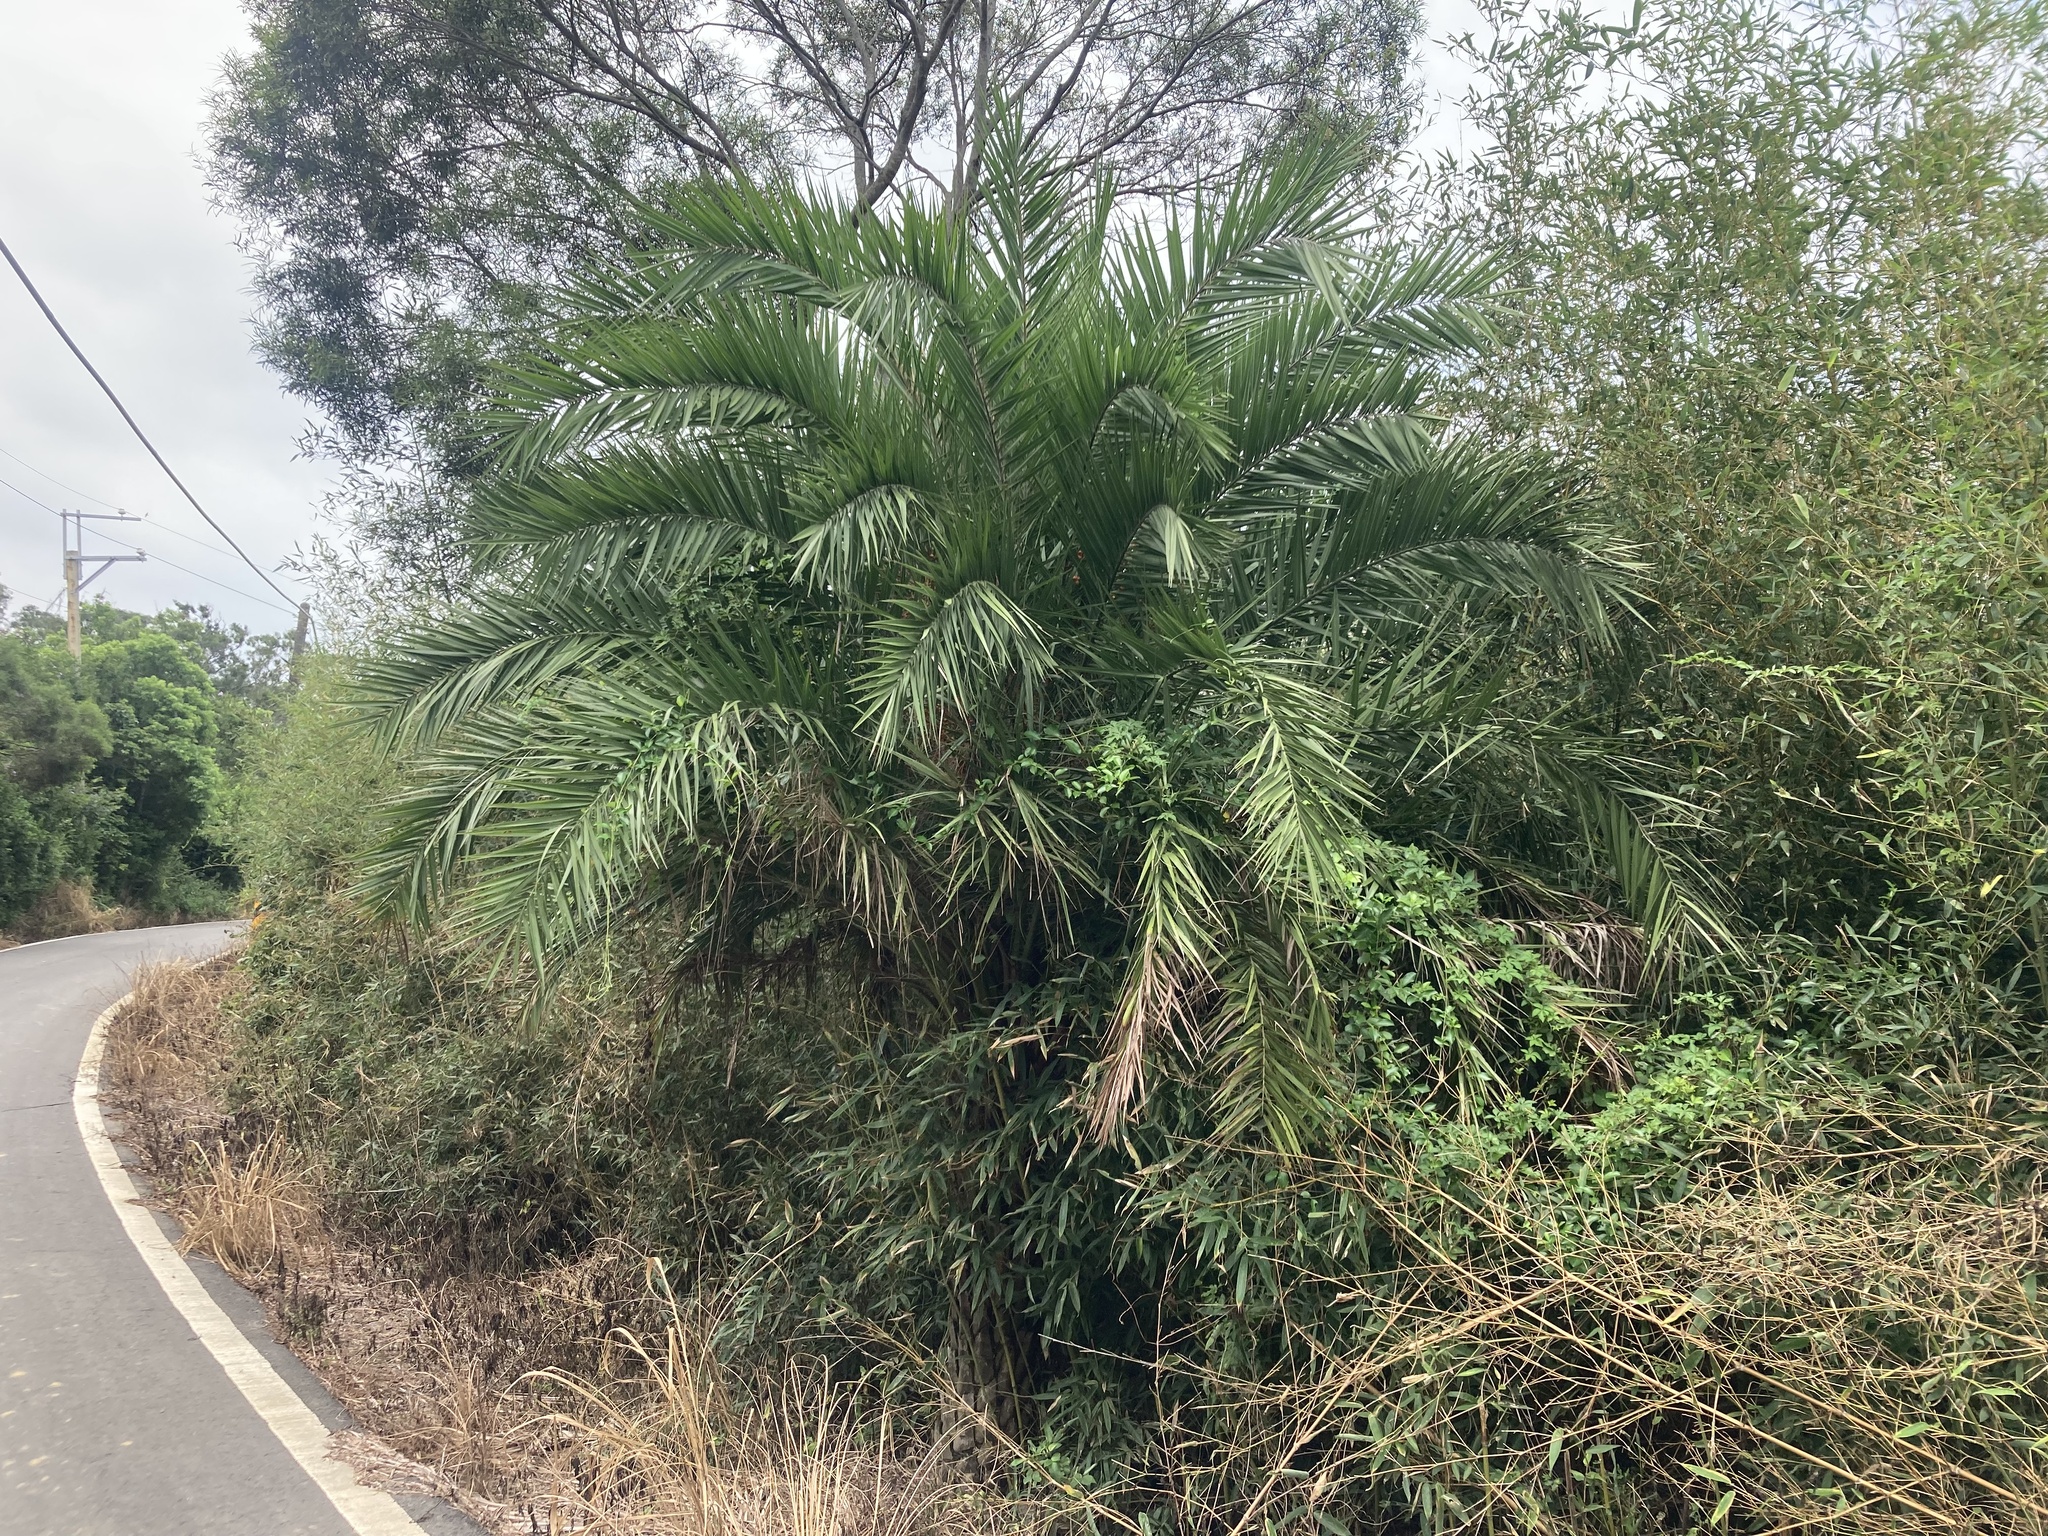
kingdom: Plantae
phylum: Tracheophyta
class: Liliopsida
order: Arecales
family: Arecaceae
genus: Phoenix
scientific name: Phoenix loureiroi
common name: Loureiro's palm
